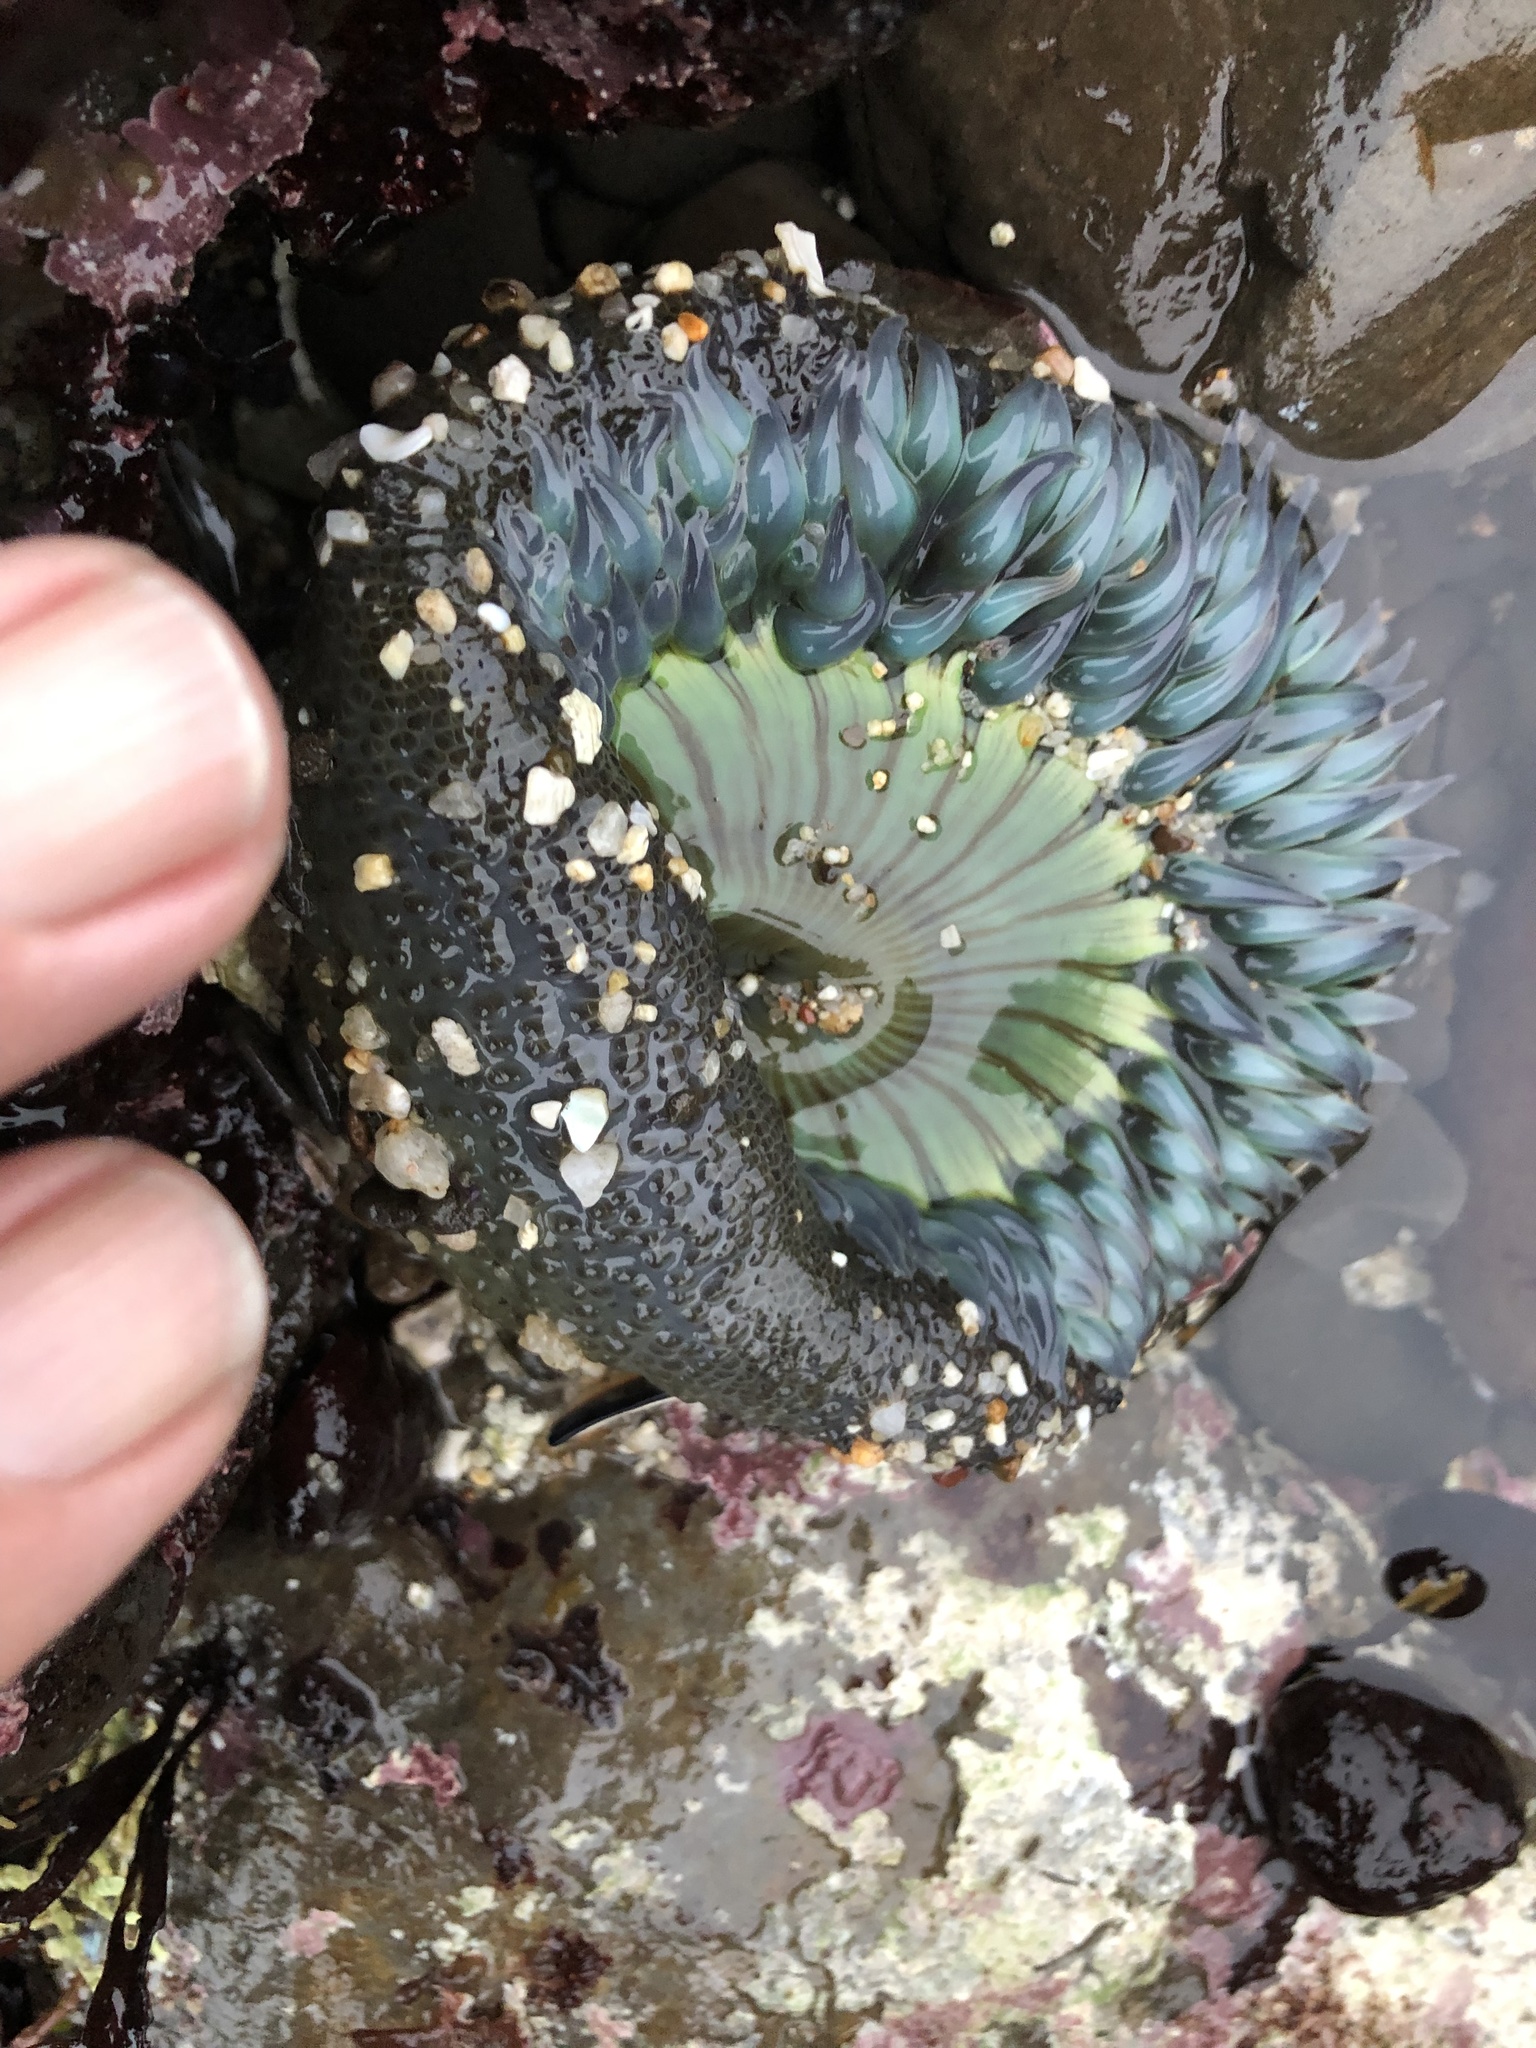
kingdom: Animalia
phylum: Cnidaria
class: Anthozoa
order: Actiniaria
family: Actiniidae
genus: Anthopleura
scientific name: Anthopleura sola
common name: Sun anemone
